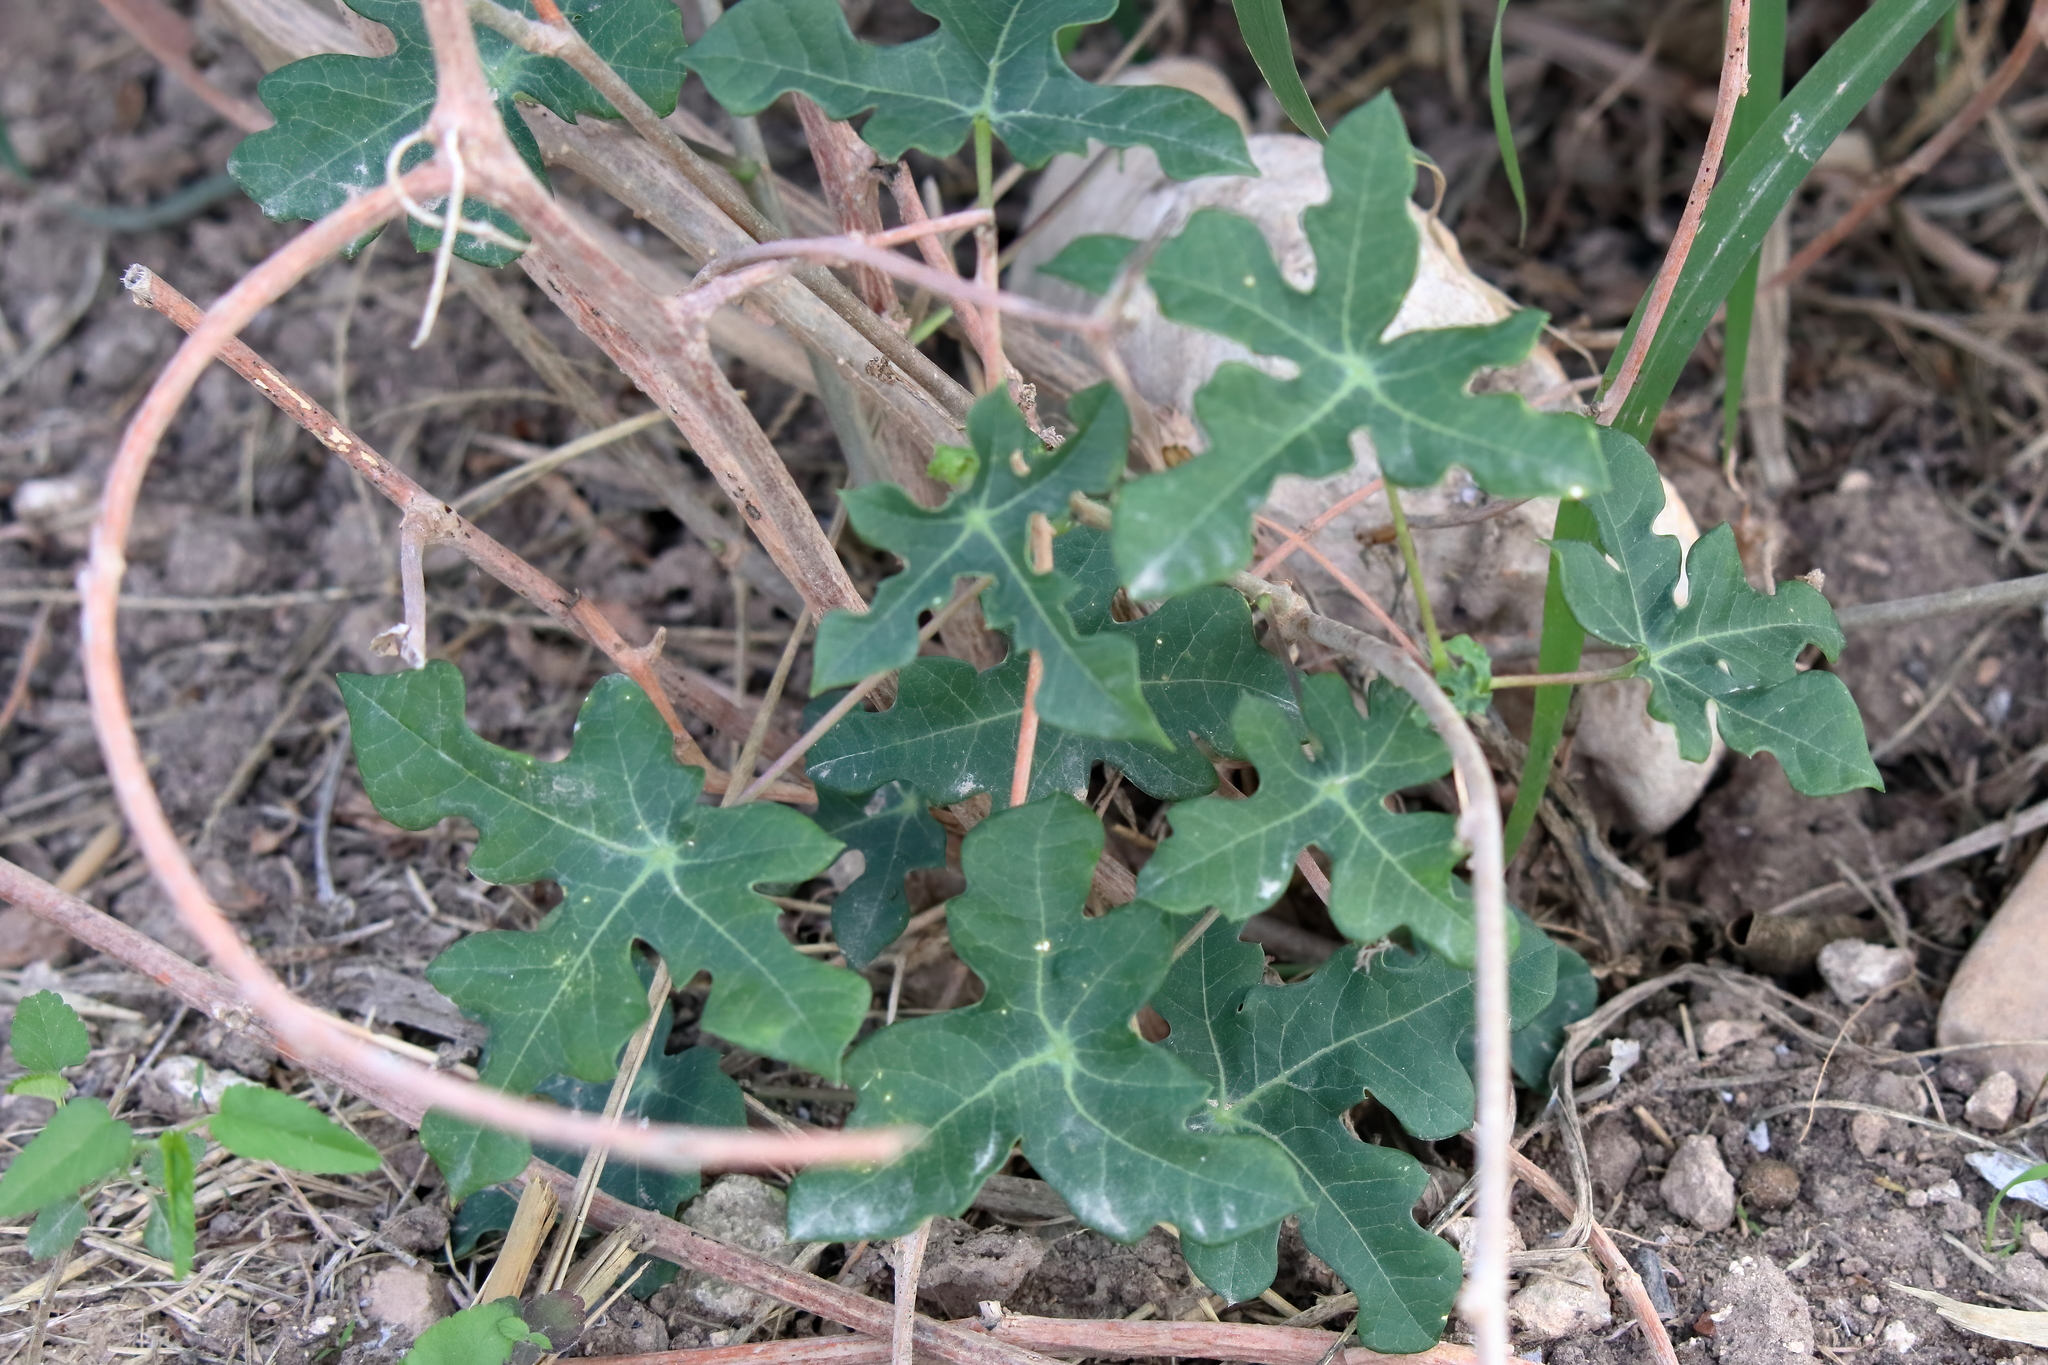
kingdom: Plantae
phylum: Tracheophyta
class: Magnoliopsida
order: Malpighiales
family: Euphorbiaceae
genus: Manihot
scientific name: Manihot walkerae
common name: Walker's manioc
